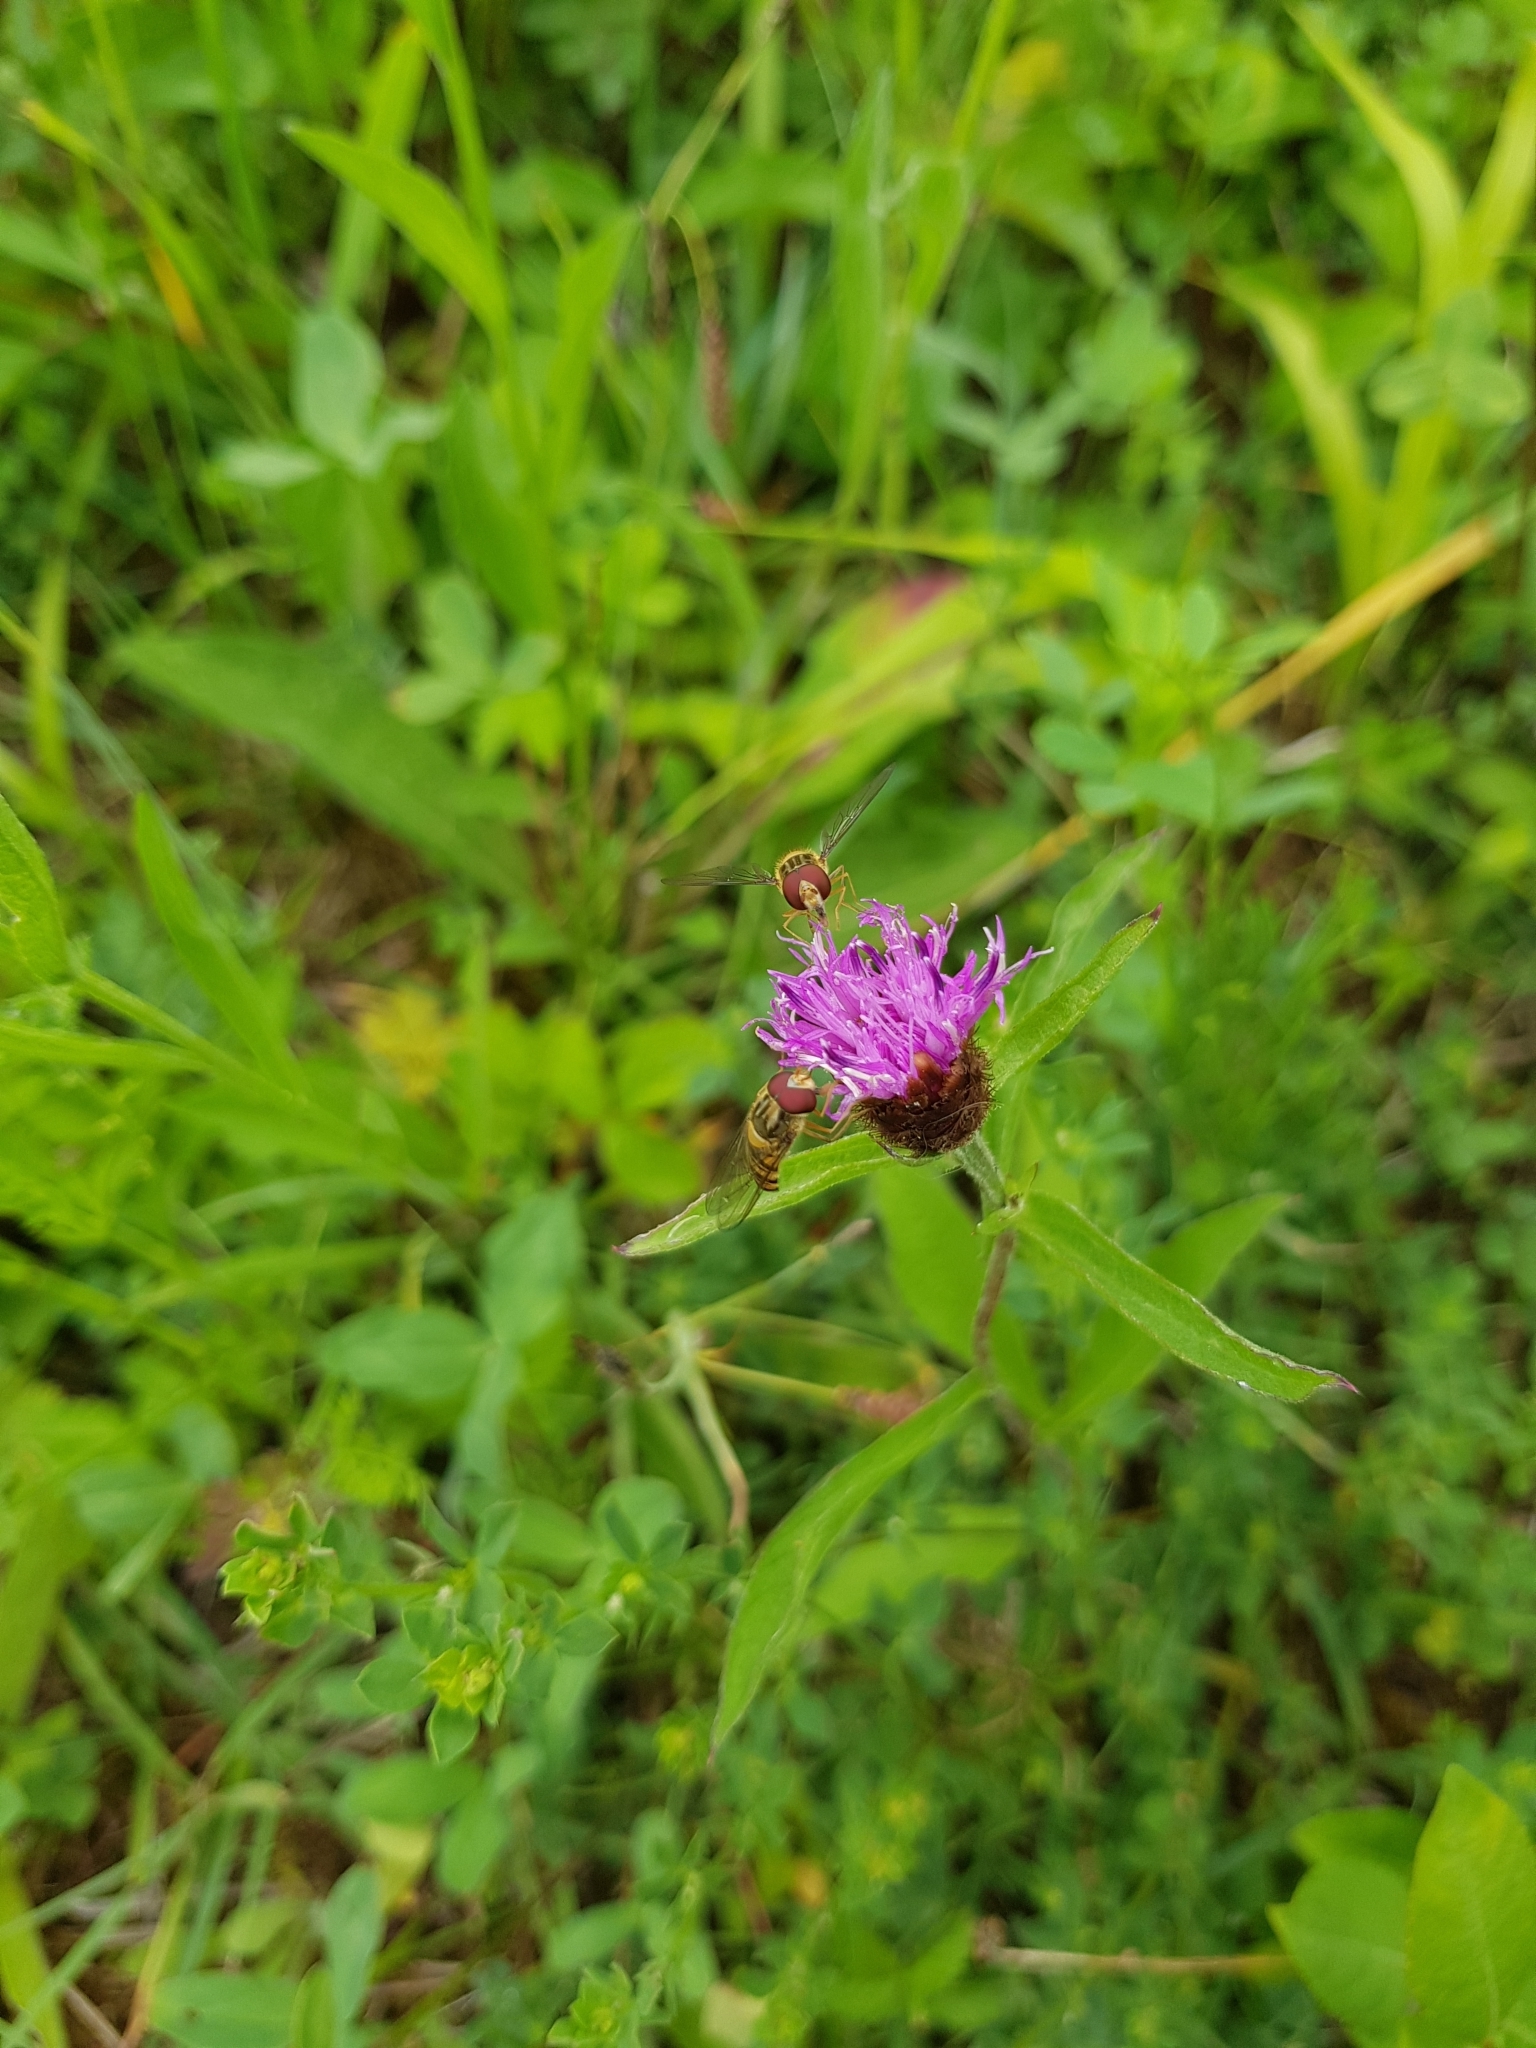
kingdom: Animalia
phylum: Arthropoda
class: Insecta
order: Diptera
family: Syrphidae
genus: Episyrphus
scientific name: Episyrphus balteatus
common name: Marmalade hoverfly
